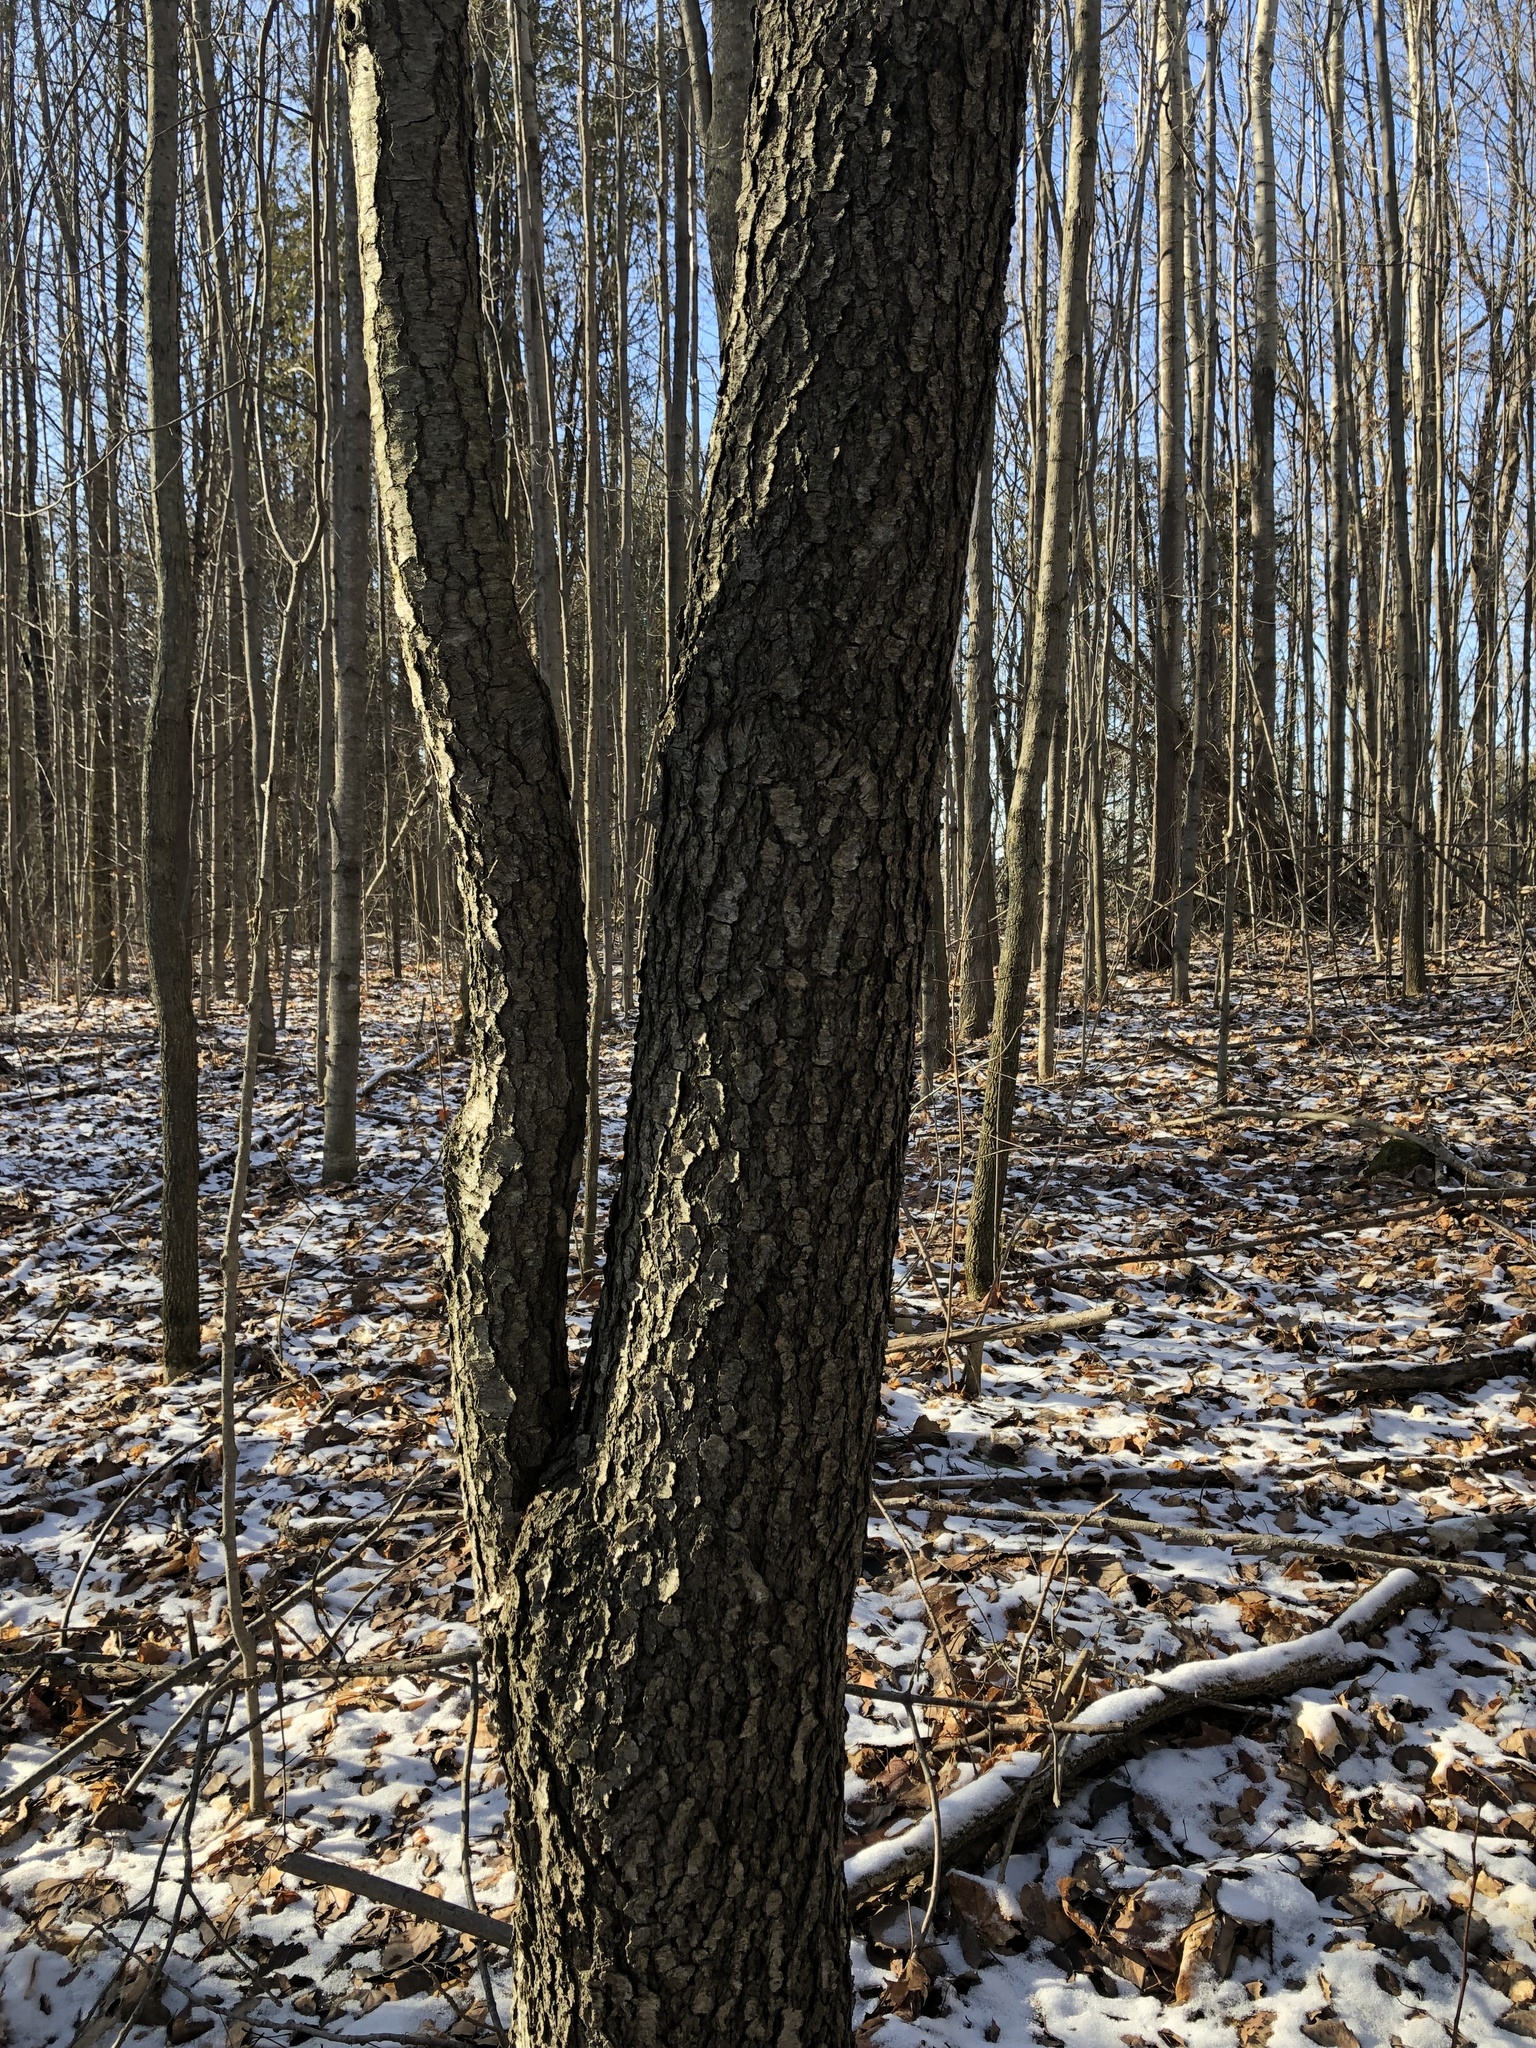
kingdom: Plantae
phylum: Tracheophyta
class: Magnoliopsida
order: Rosales
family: Rosaceae
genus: Prunus
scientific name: Prunus serotina
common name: Black cherry
